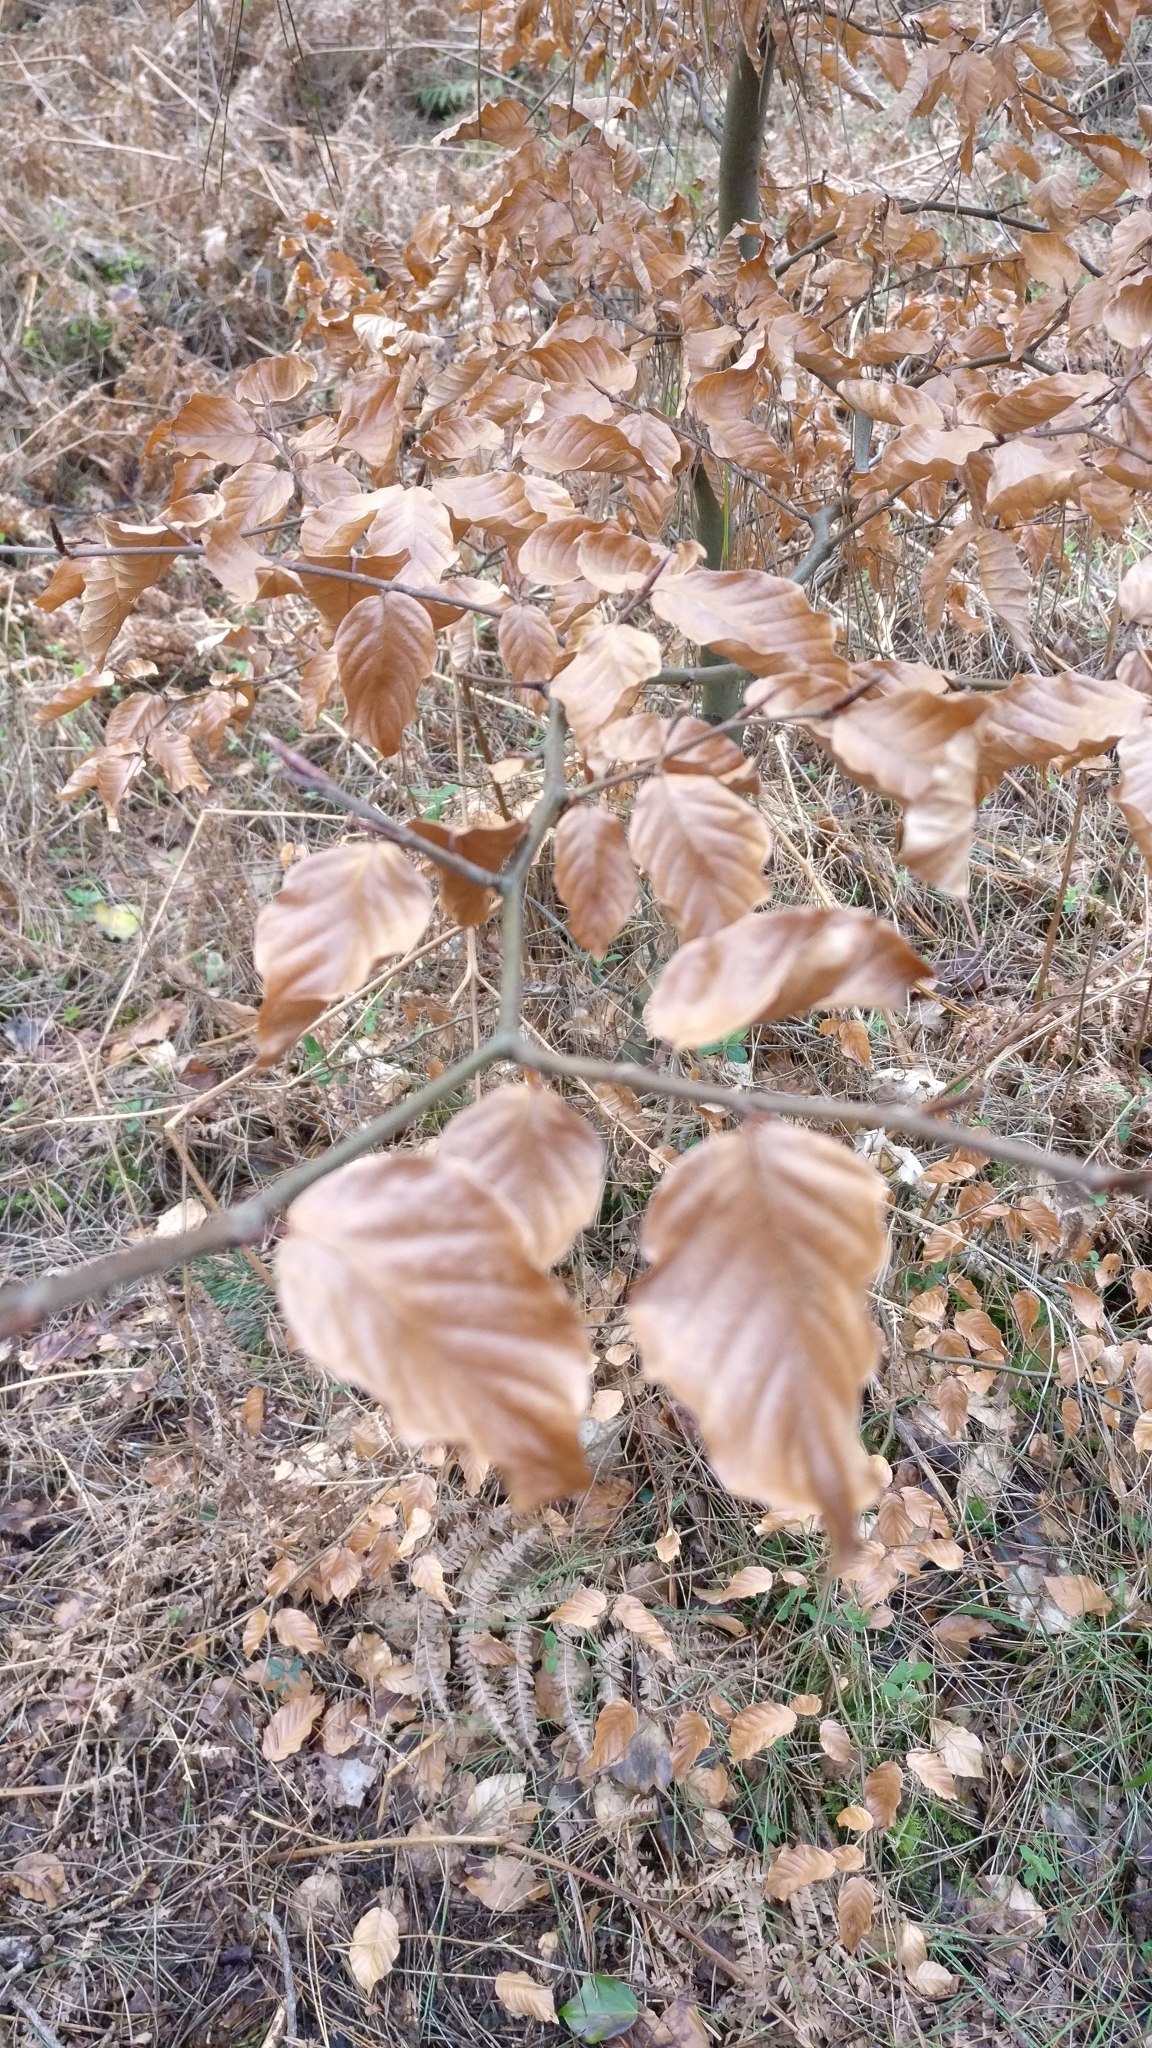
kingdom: Plantae
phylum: Tracheophyta
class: Magnoliopsida
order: Fagales
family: Fagaceae
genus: Fagus
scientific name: Fagus sylvatica
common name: Beech
